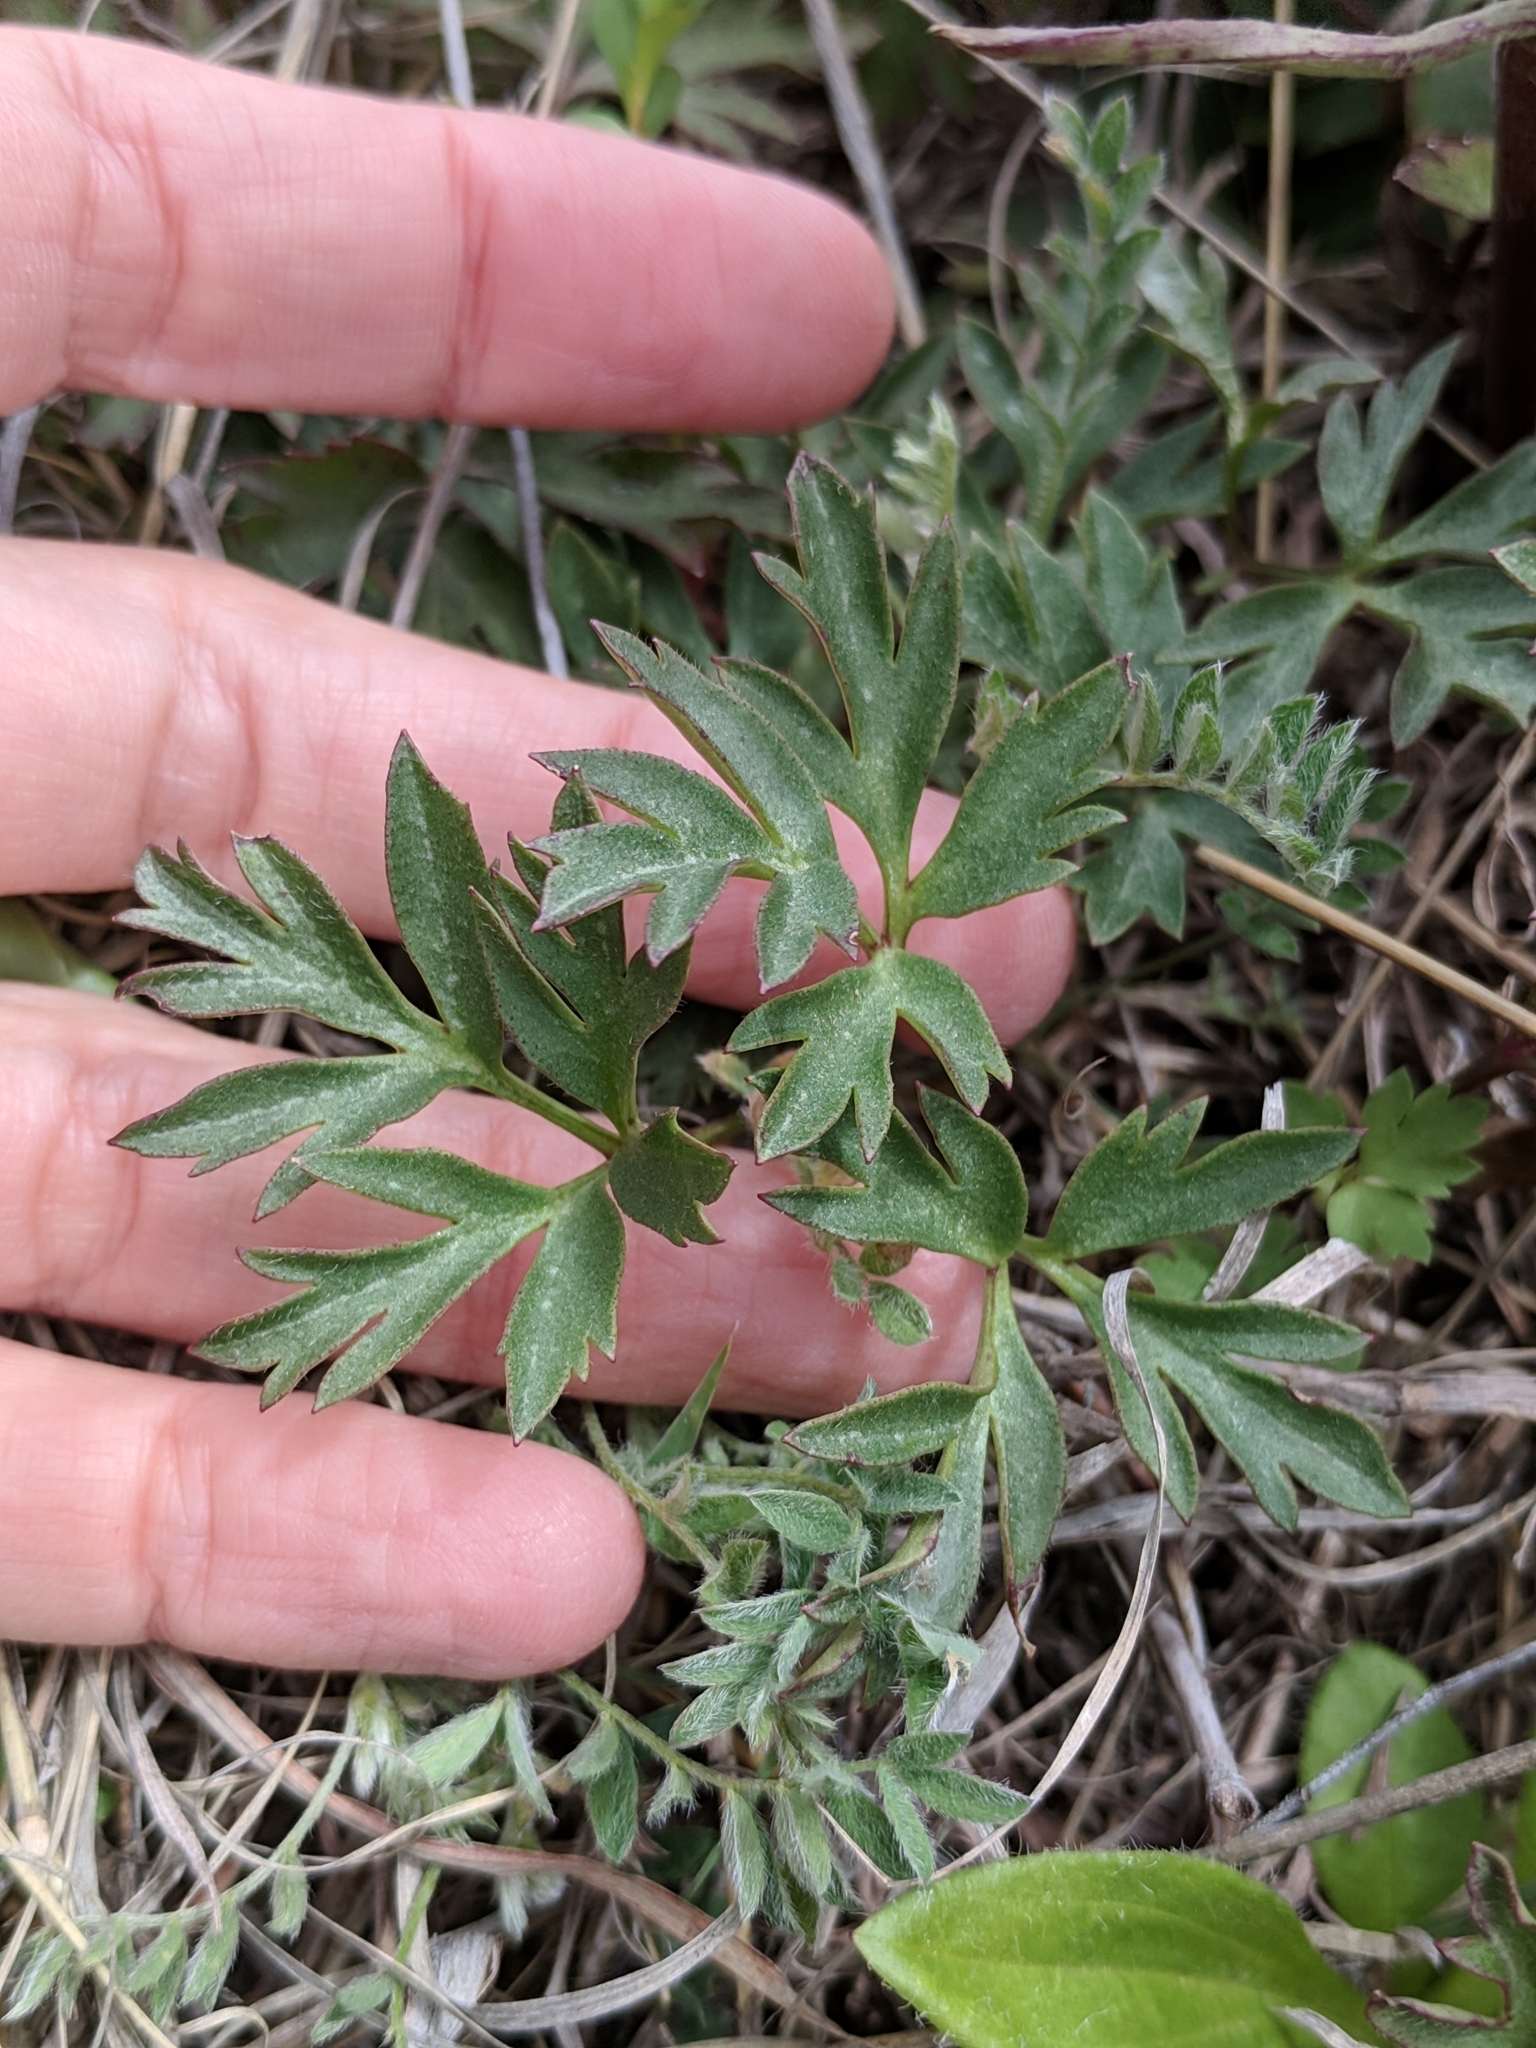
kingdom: Plantae
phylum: Tracheophyta
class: Magnoliopsida
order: Ranunculales
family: Ranunculaceae
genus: Anemone
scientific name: Anemone tuberosa
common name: Desert anemone
